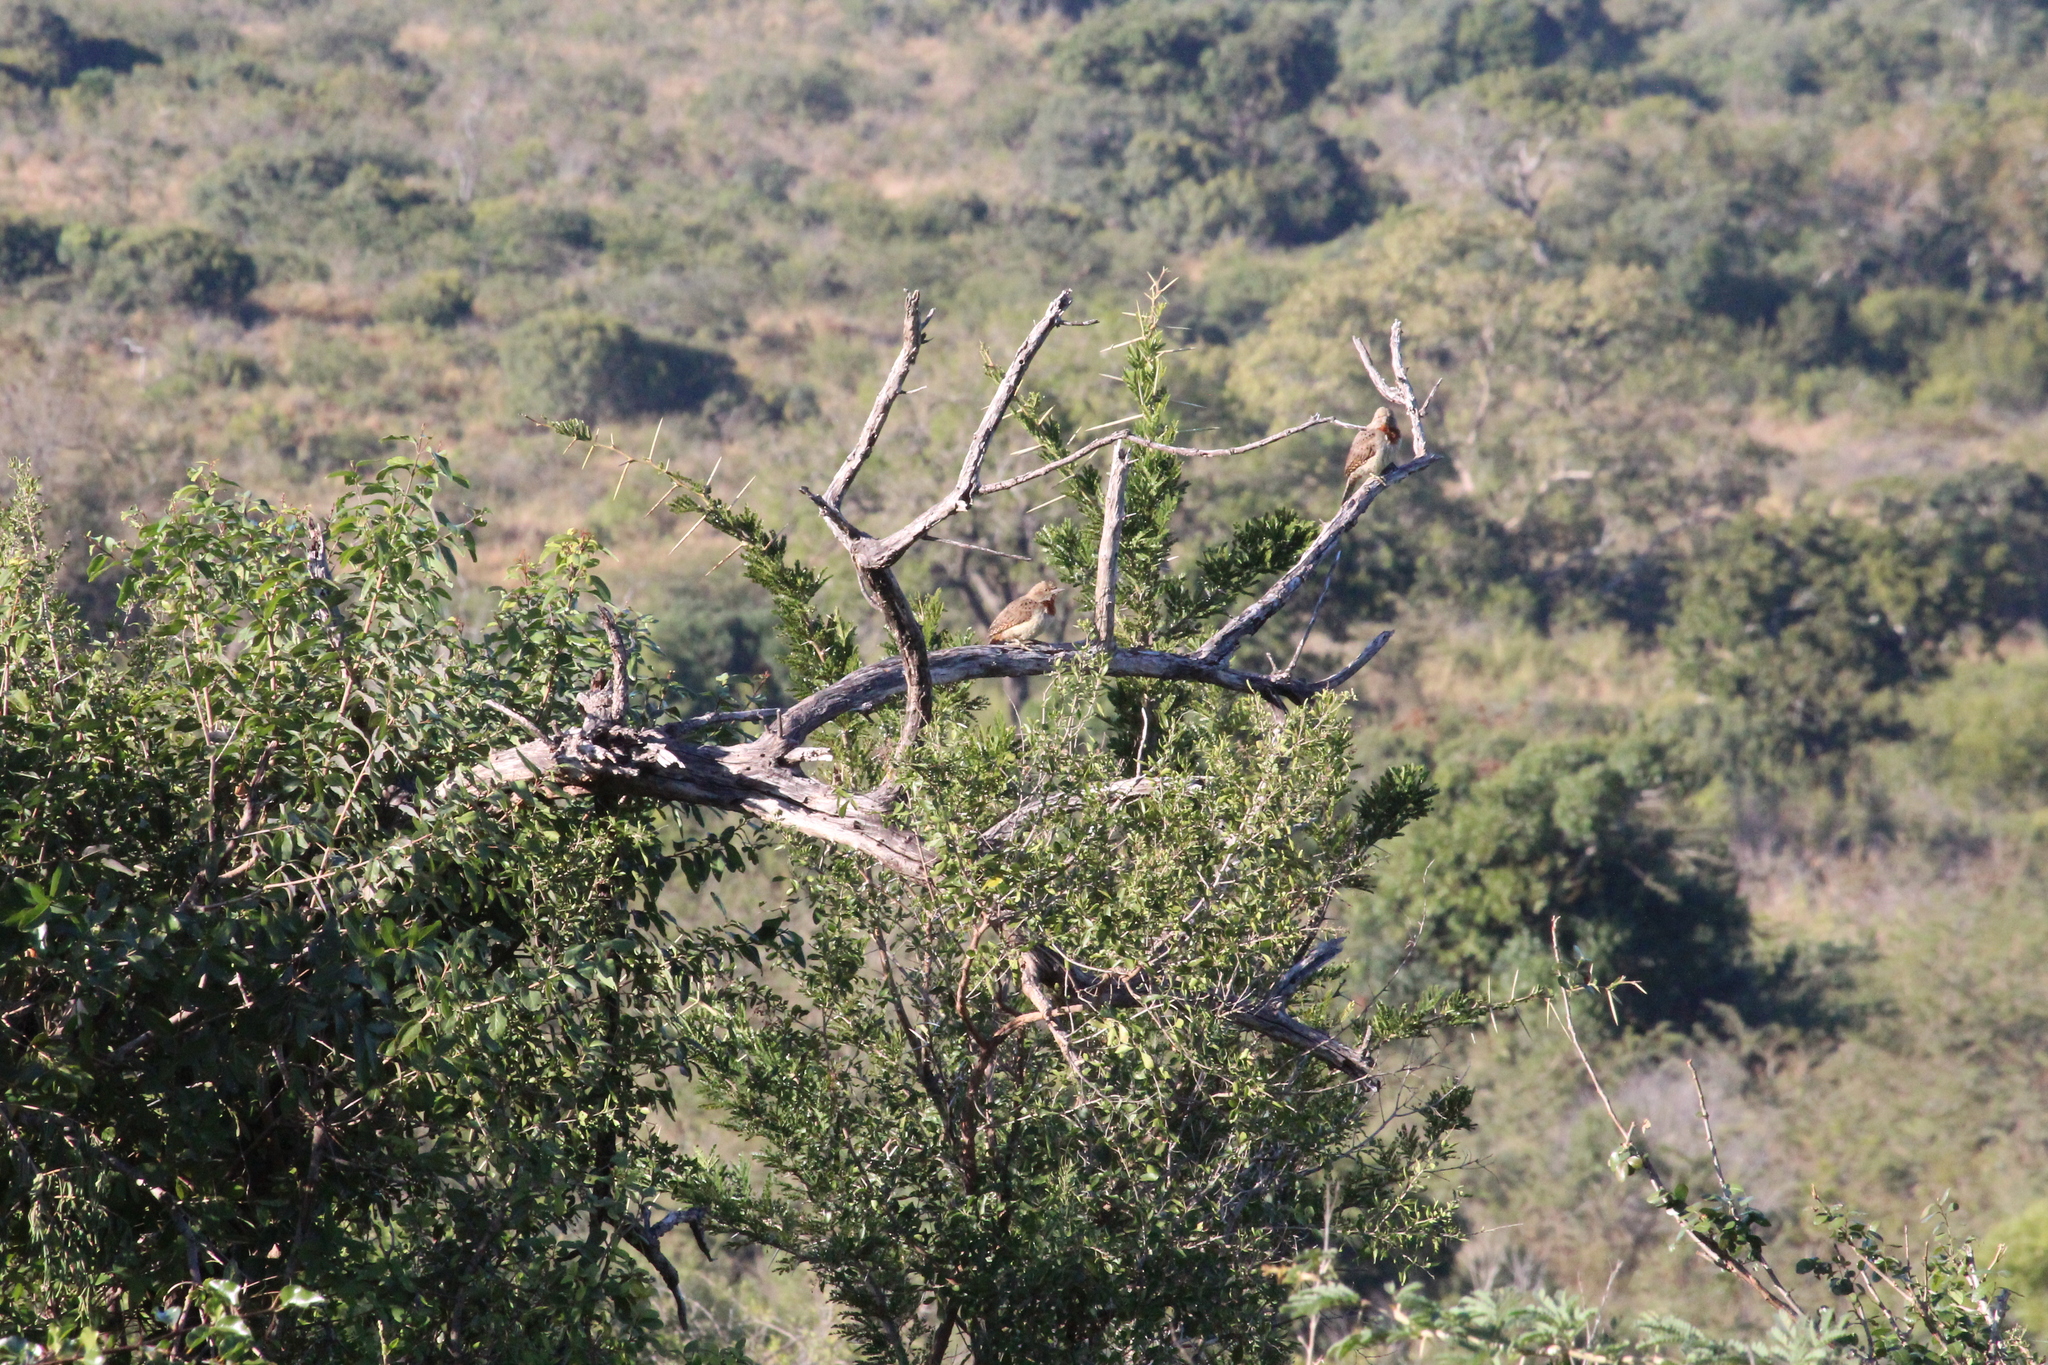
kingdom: Animalia
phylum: Chordata
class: Aves
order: Piciformes
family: Picidae
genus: Jynx
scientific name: Jynx ruficollis
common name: Red-throated wryneck
